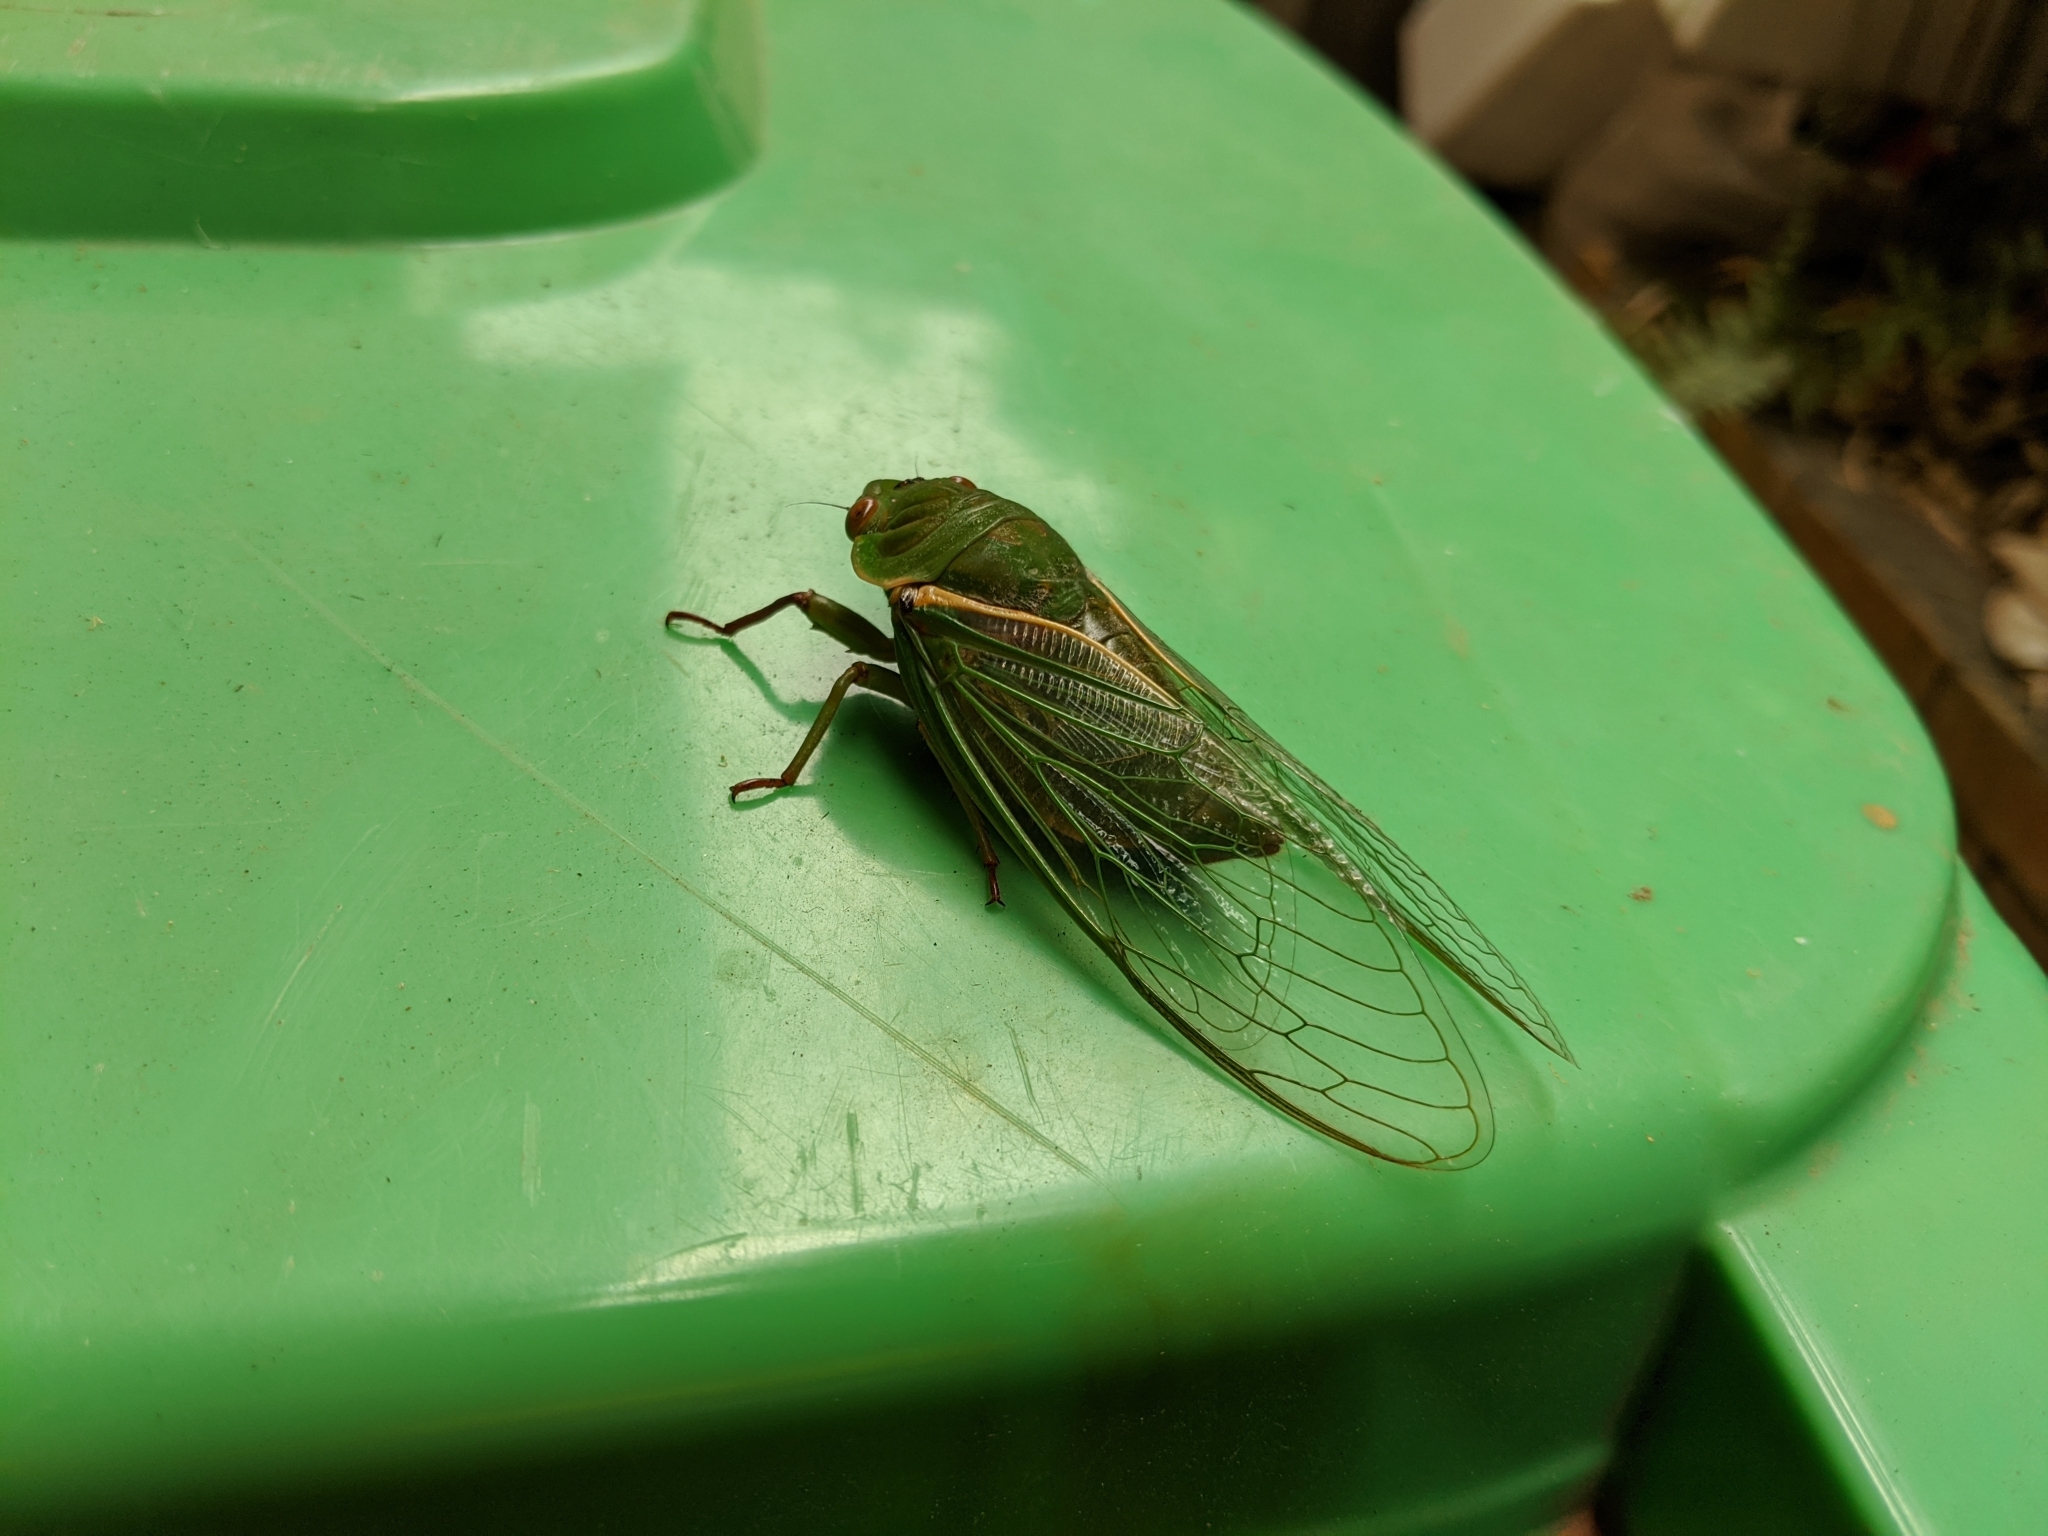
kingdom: Animalia
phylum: Arthropoda
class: Insecta
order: Hemiptera
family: Cicadidae
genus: Cyclochila
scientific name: Cyclochila australasiae
